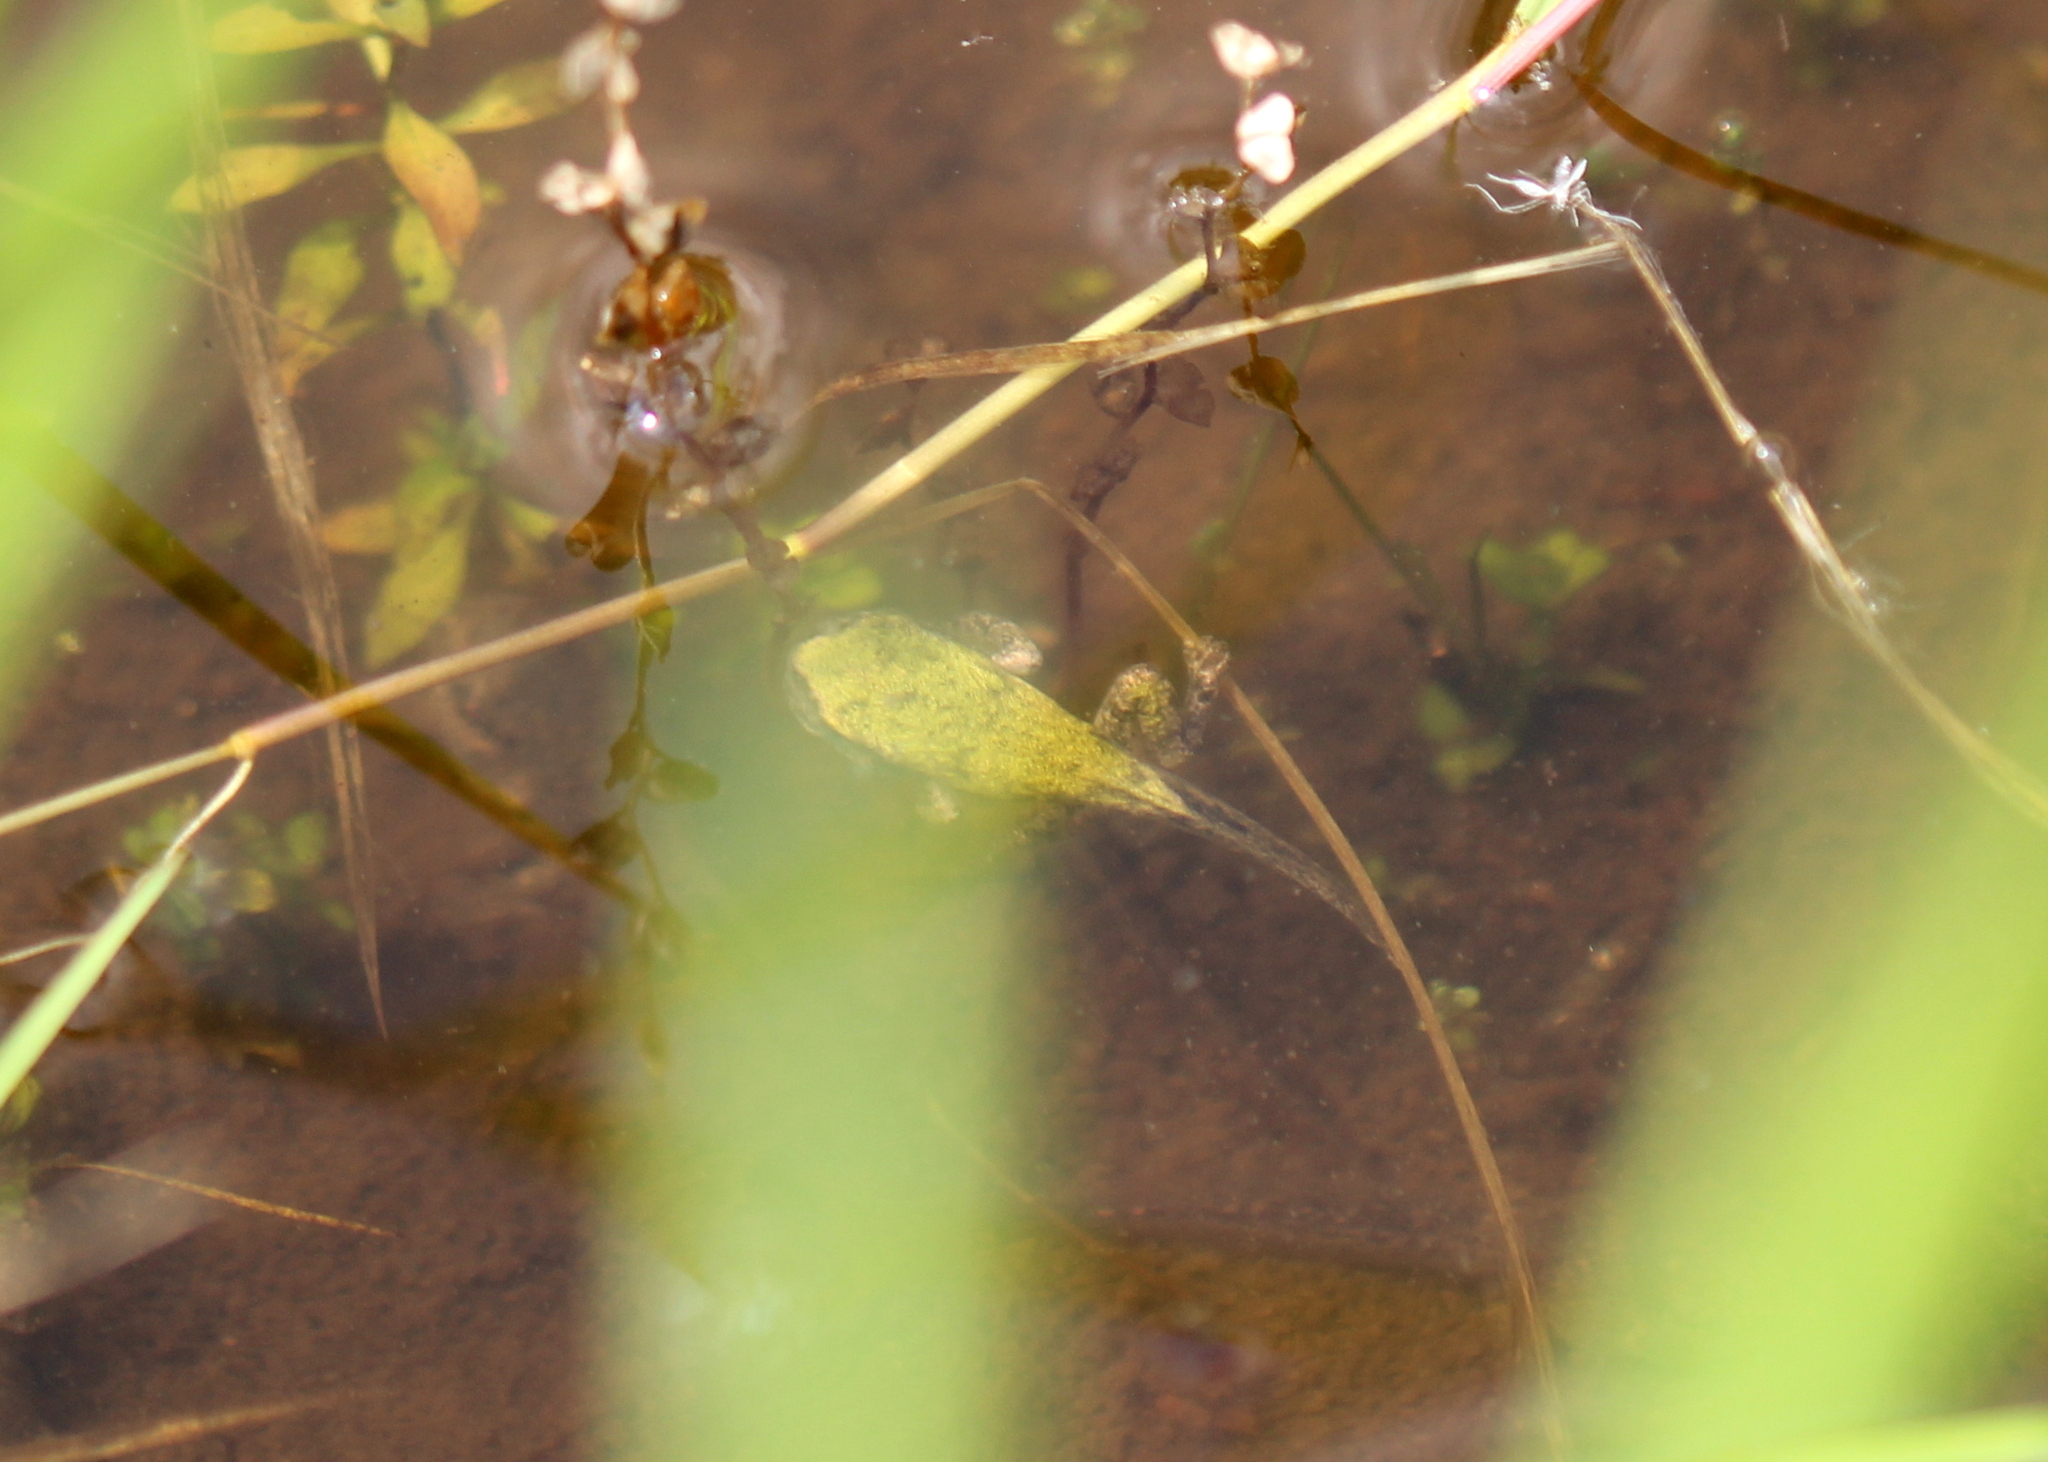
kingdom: Animalia
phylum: Chordata
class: Amphibia
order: Anura
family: Hylidae
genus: Dryophytes
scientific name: Dryophytes versicolor
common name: Gray treefrog
